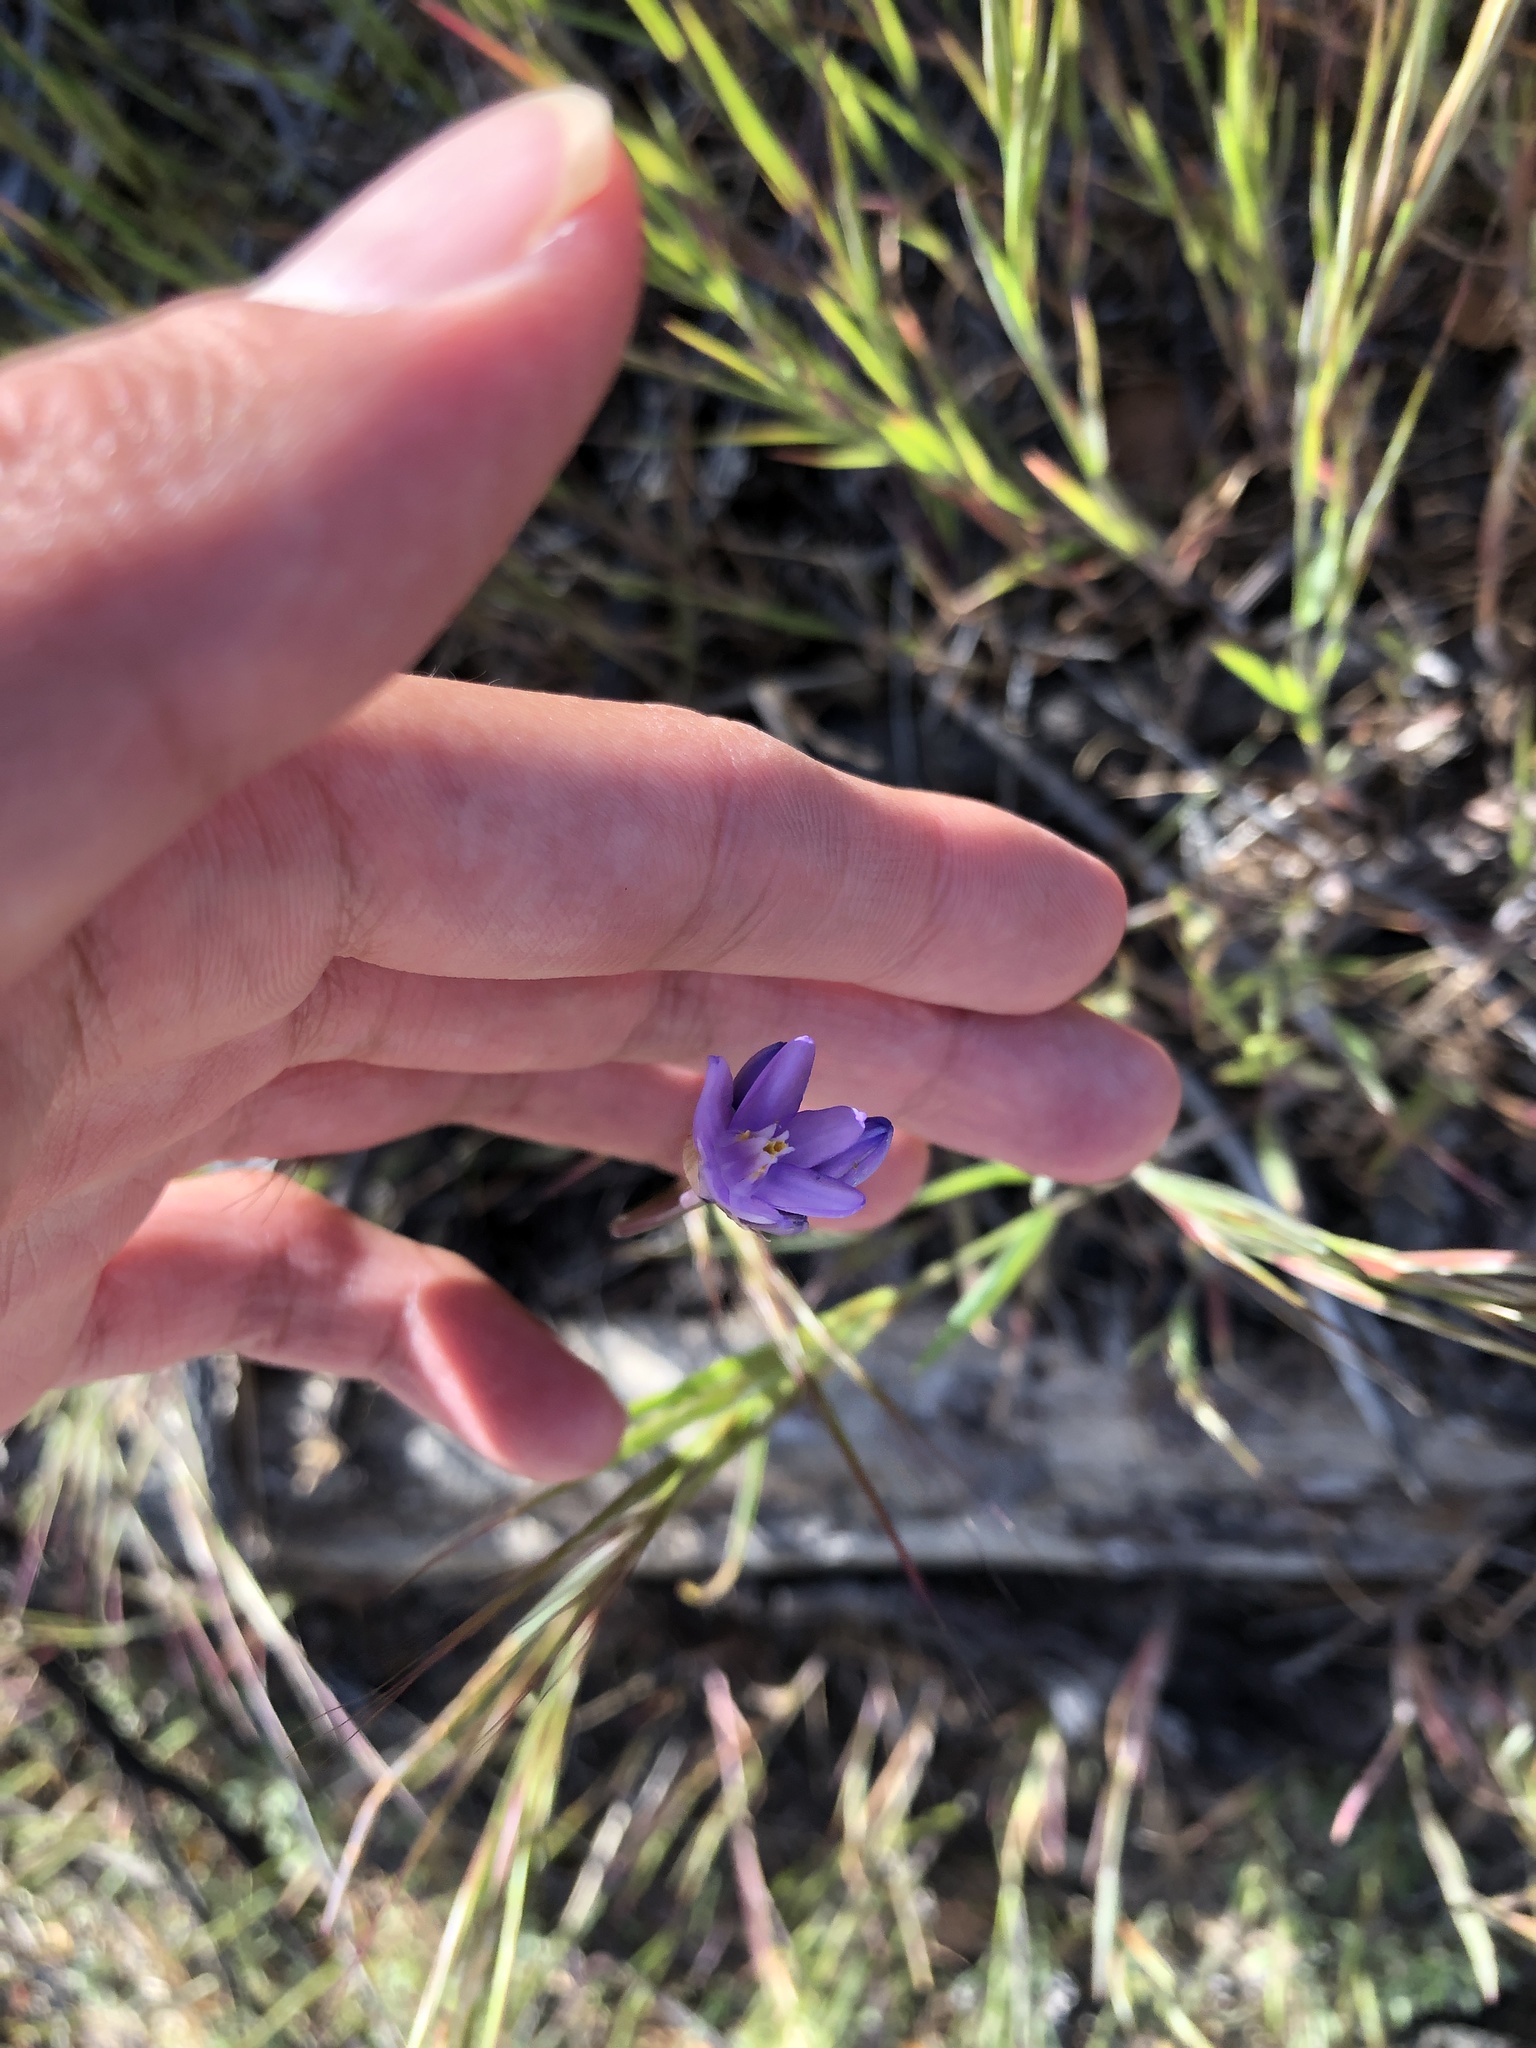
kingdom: Plantae
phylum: Tracheophyta
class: Liliopsida
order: Asparagales
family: Asparagaceae
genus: Dipterostemon
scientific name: Dipterostemon capitatus
